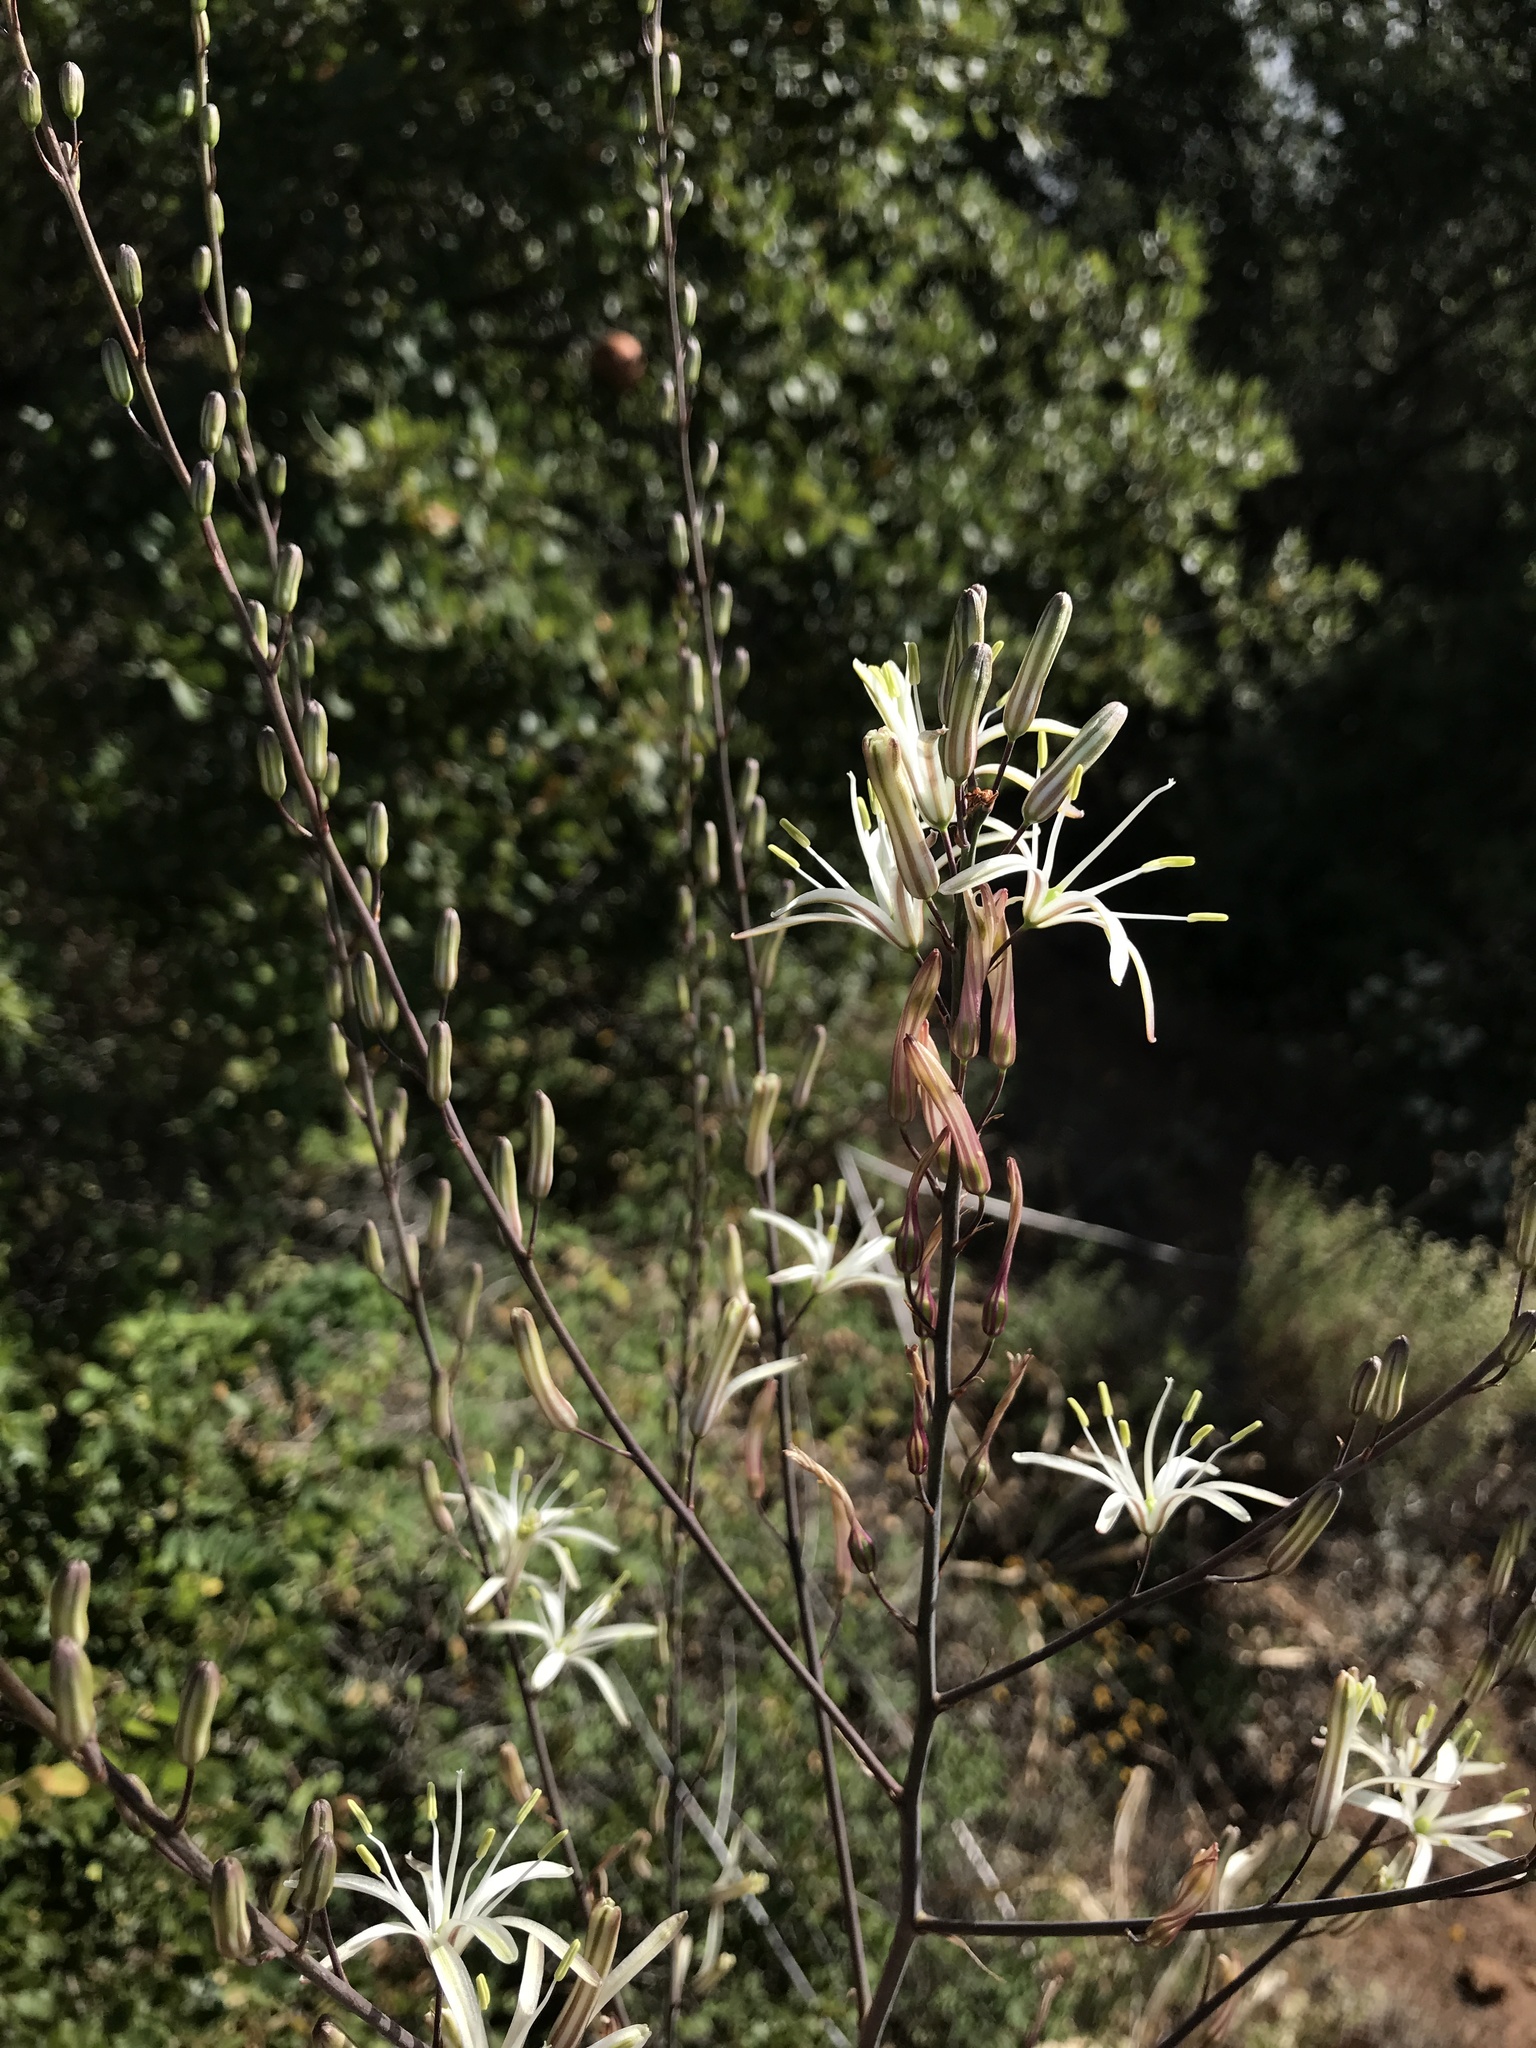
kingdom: Plantae
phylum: Tracheophyta
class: Liliopsida
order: Asparagales
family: Asparagaceae
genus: Chlorogalum
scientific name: Chlorogalum pomeridianum
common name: Amole
